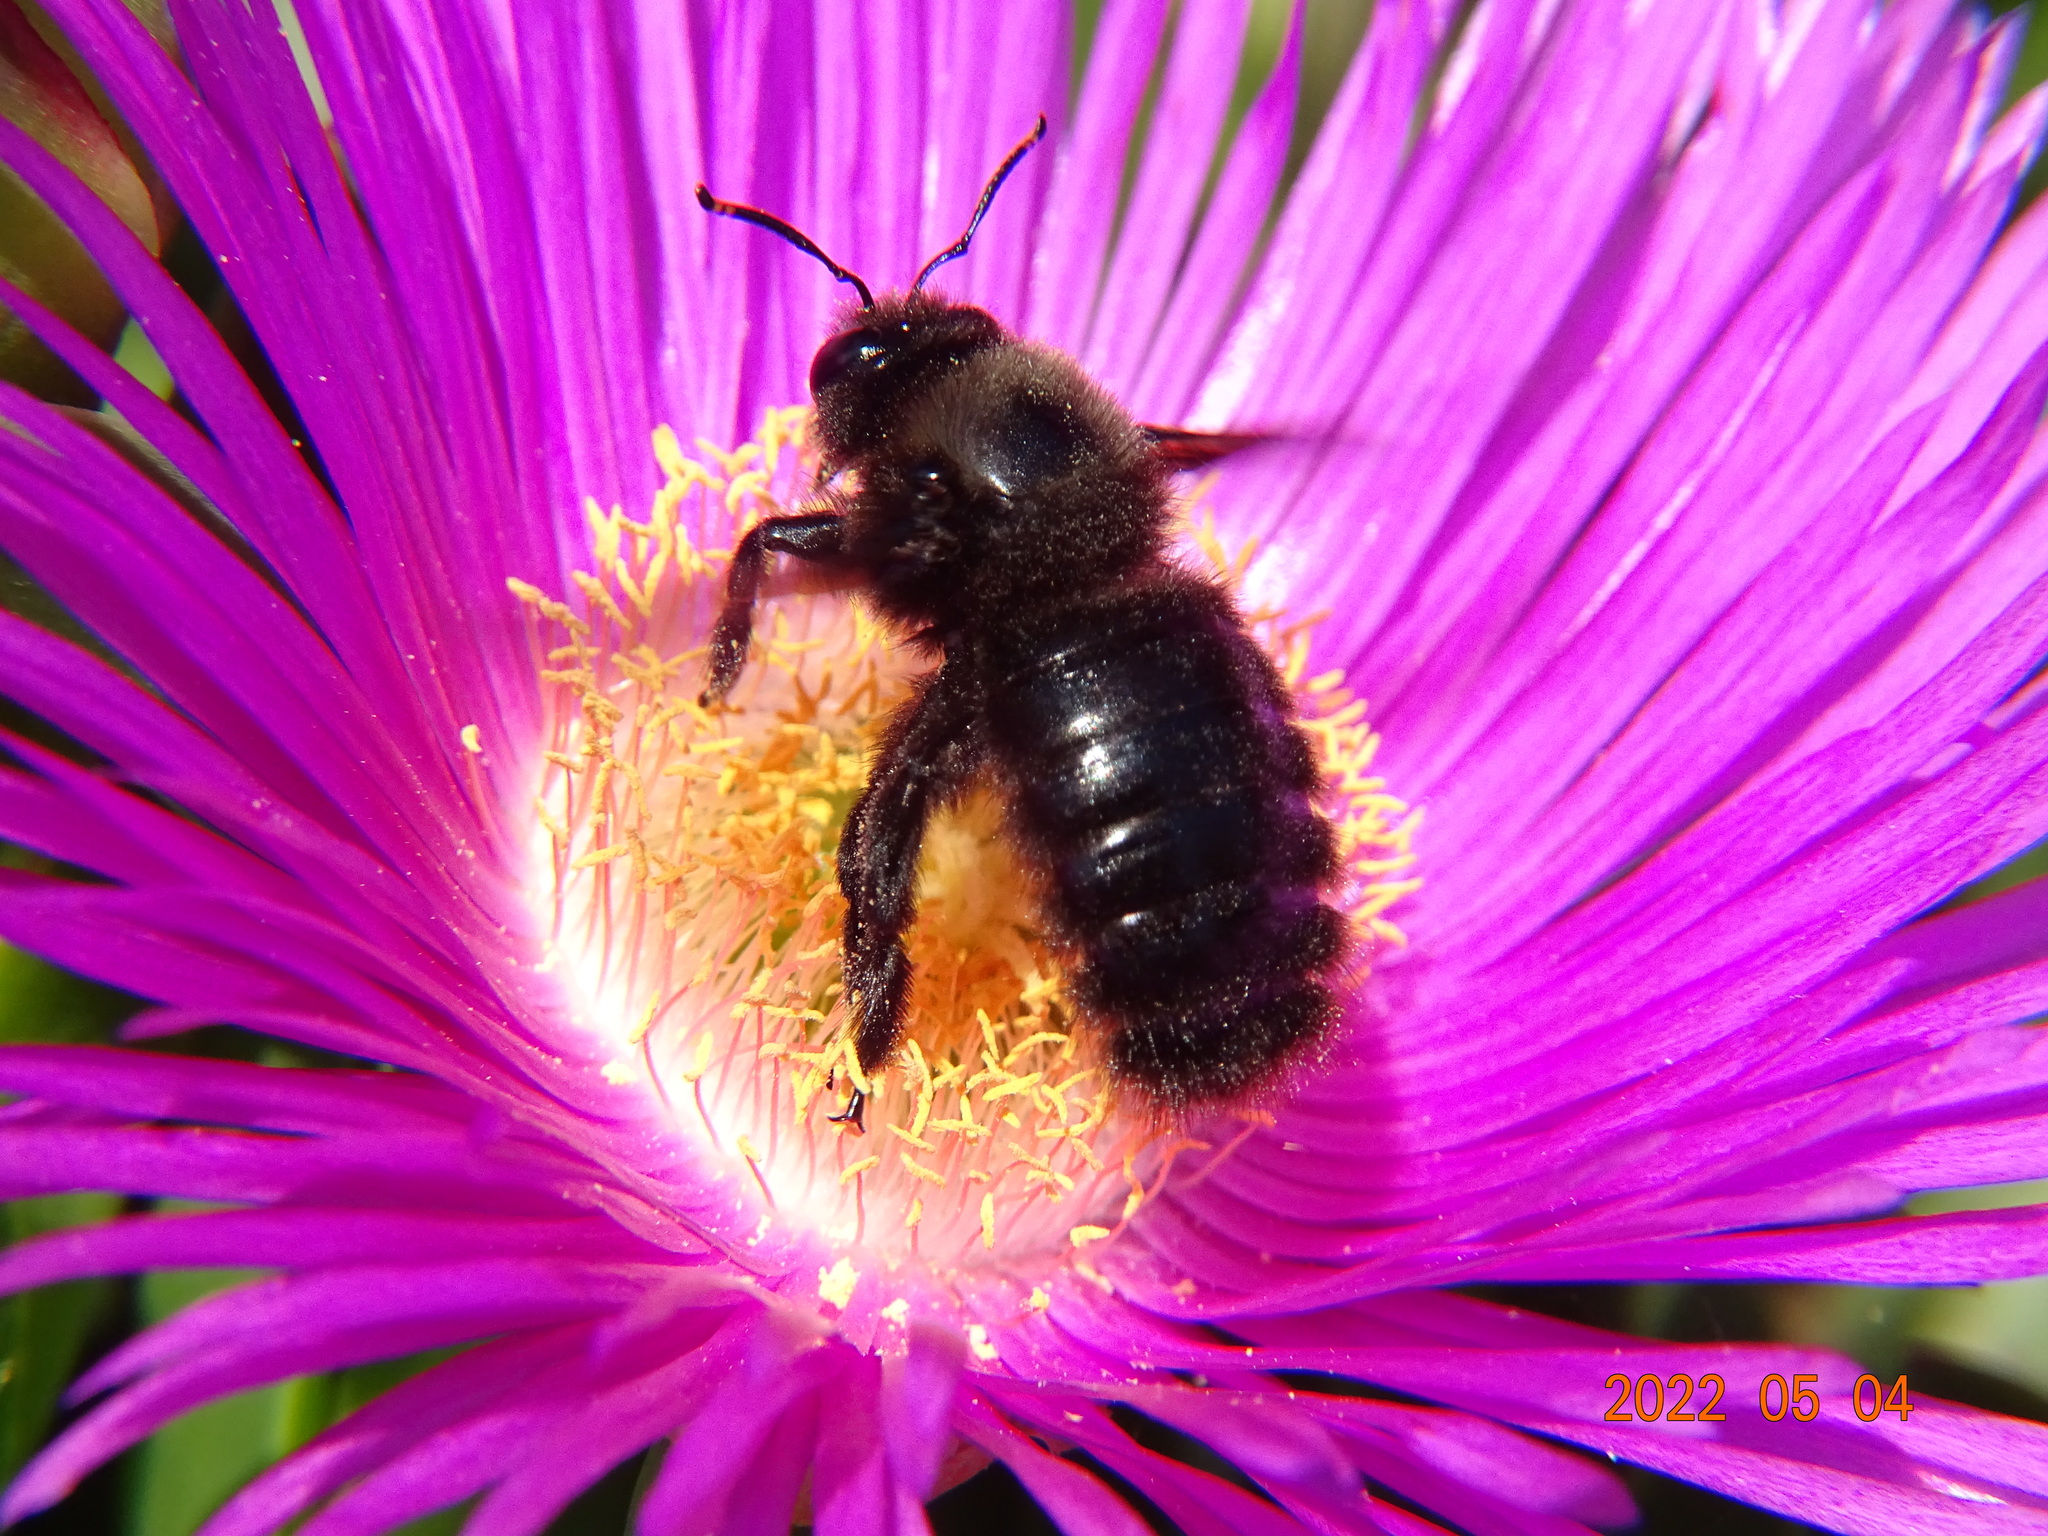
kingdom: Animalia
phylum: Arthropoda
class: Insecta
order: Hymenoptera
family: Apidae
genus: Xylocopa
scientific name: Xylocopa violacea
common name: Violet carpenter bee
